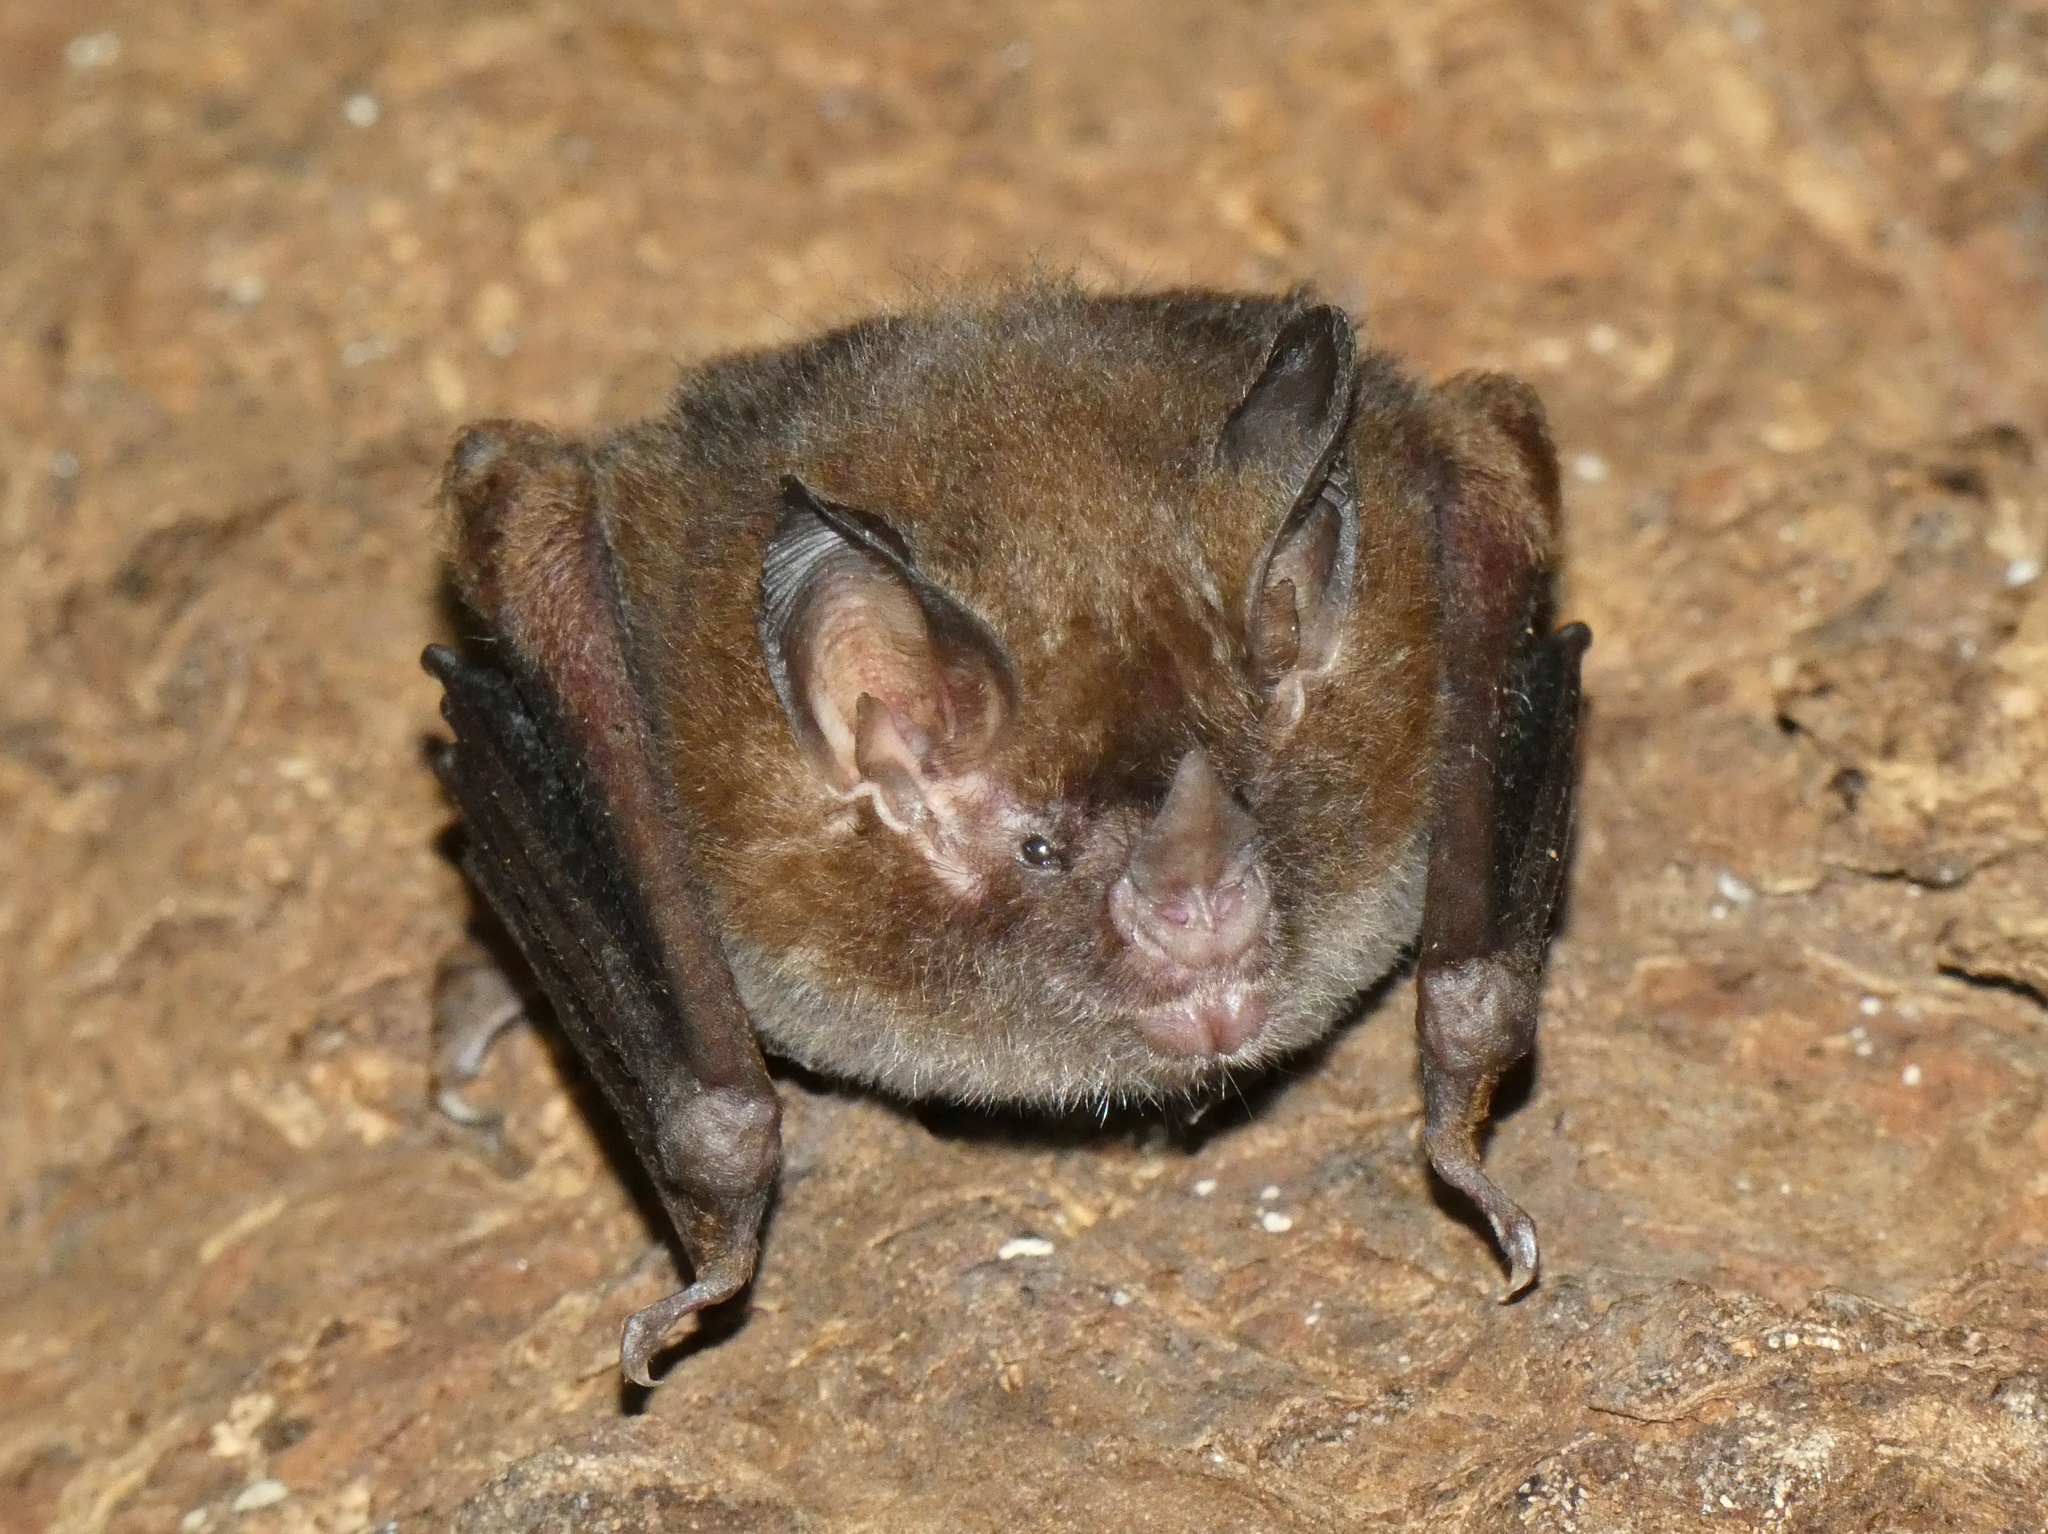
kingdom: Animalia
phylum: Chordata
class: Mammalia
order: Chiroptera
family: Phyllostomidae
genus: Glyphonycteris
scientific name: Glyphonycteris sylvestris
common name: Tricolored bat
